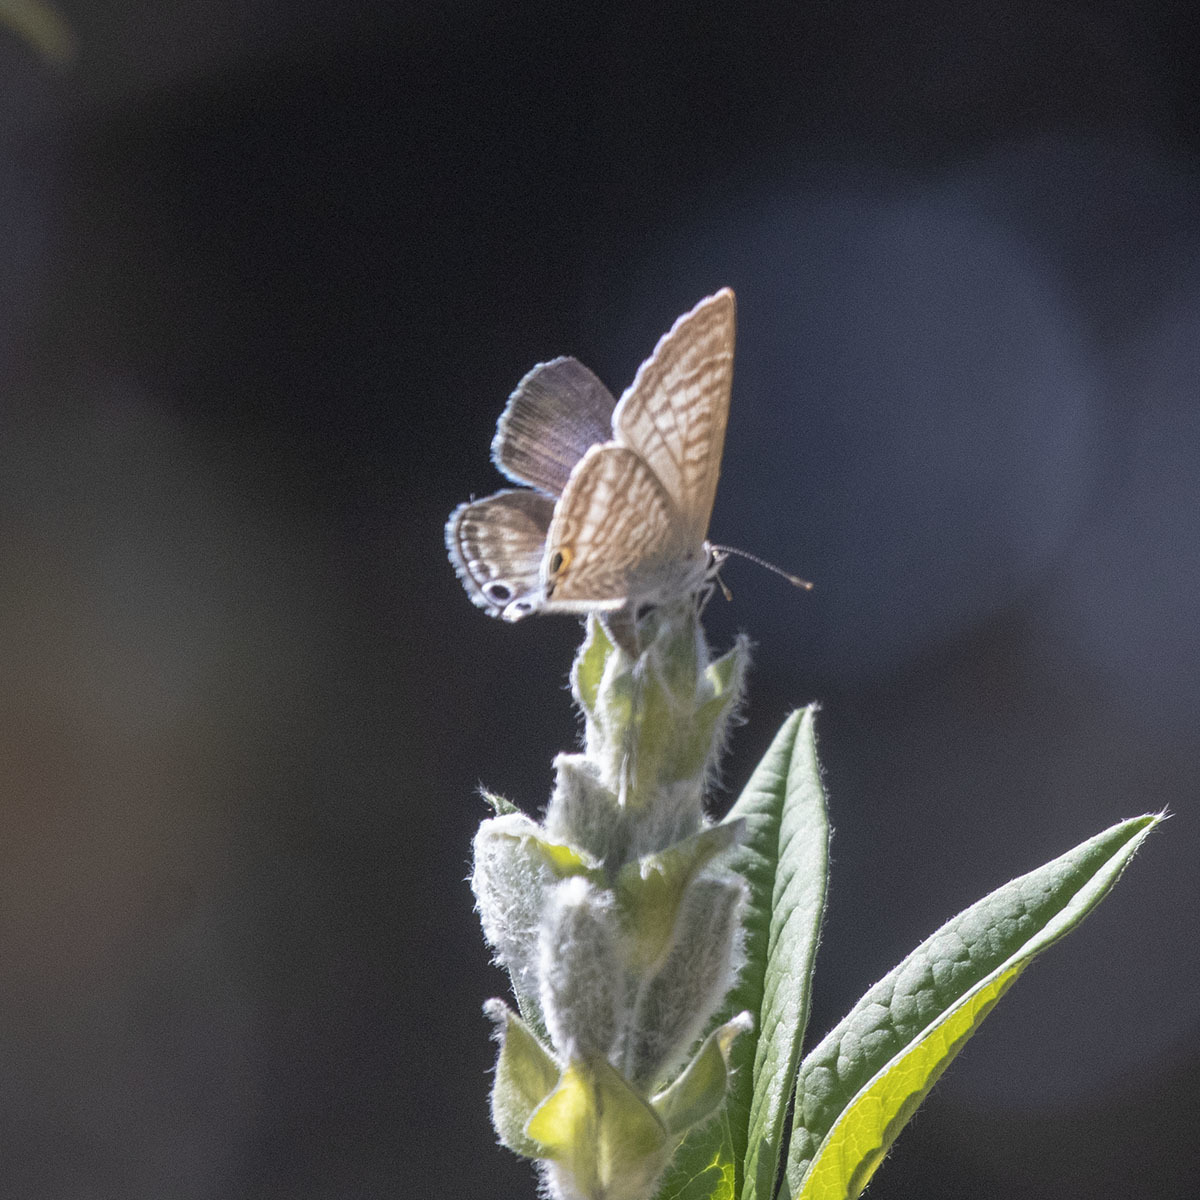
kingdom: Animalia
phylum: Arthropoda
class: Insecta
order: Lepidoptera
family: Lycaenidae
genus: Lampides
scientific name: Lampides boeticus
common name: Long-tailed blue
